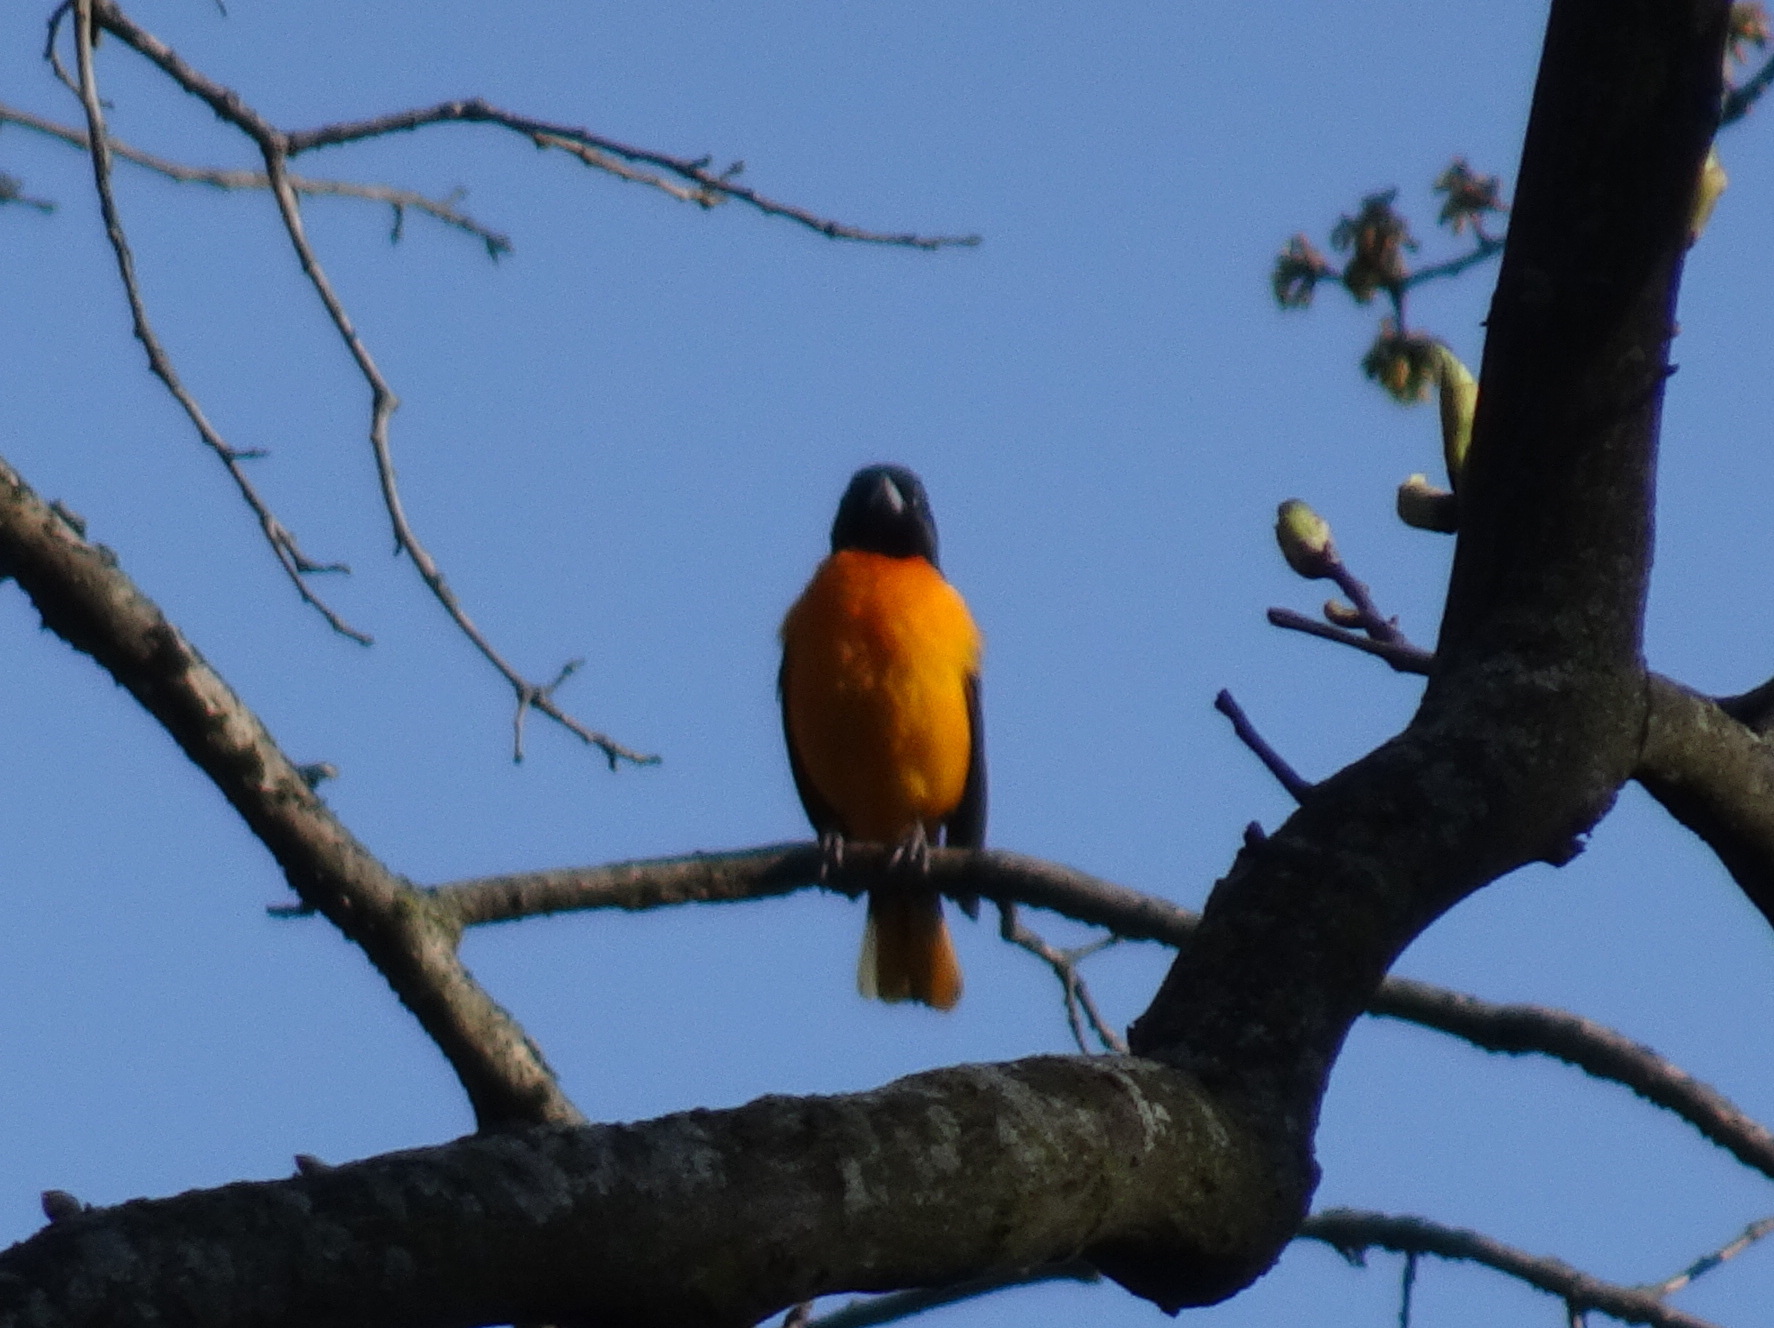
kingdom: Animalia
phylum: Chordata
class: Aves
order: Passeriformes
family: Icteridae
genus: Icterus
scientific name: Icterus galbula
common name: Baltimore oriole
